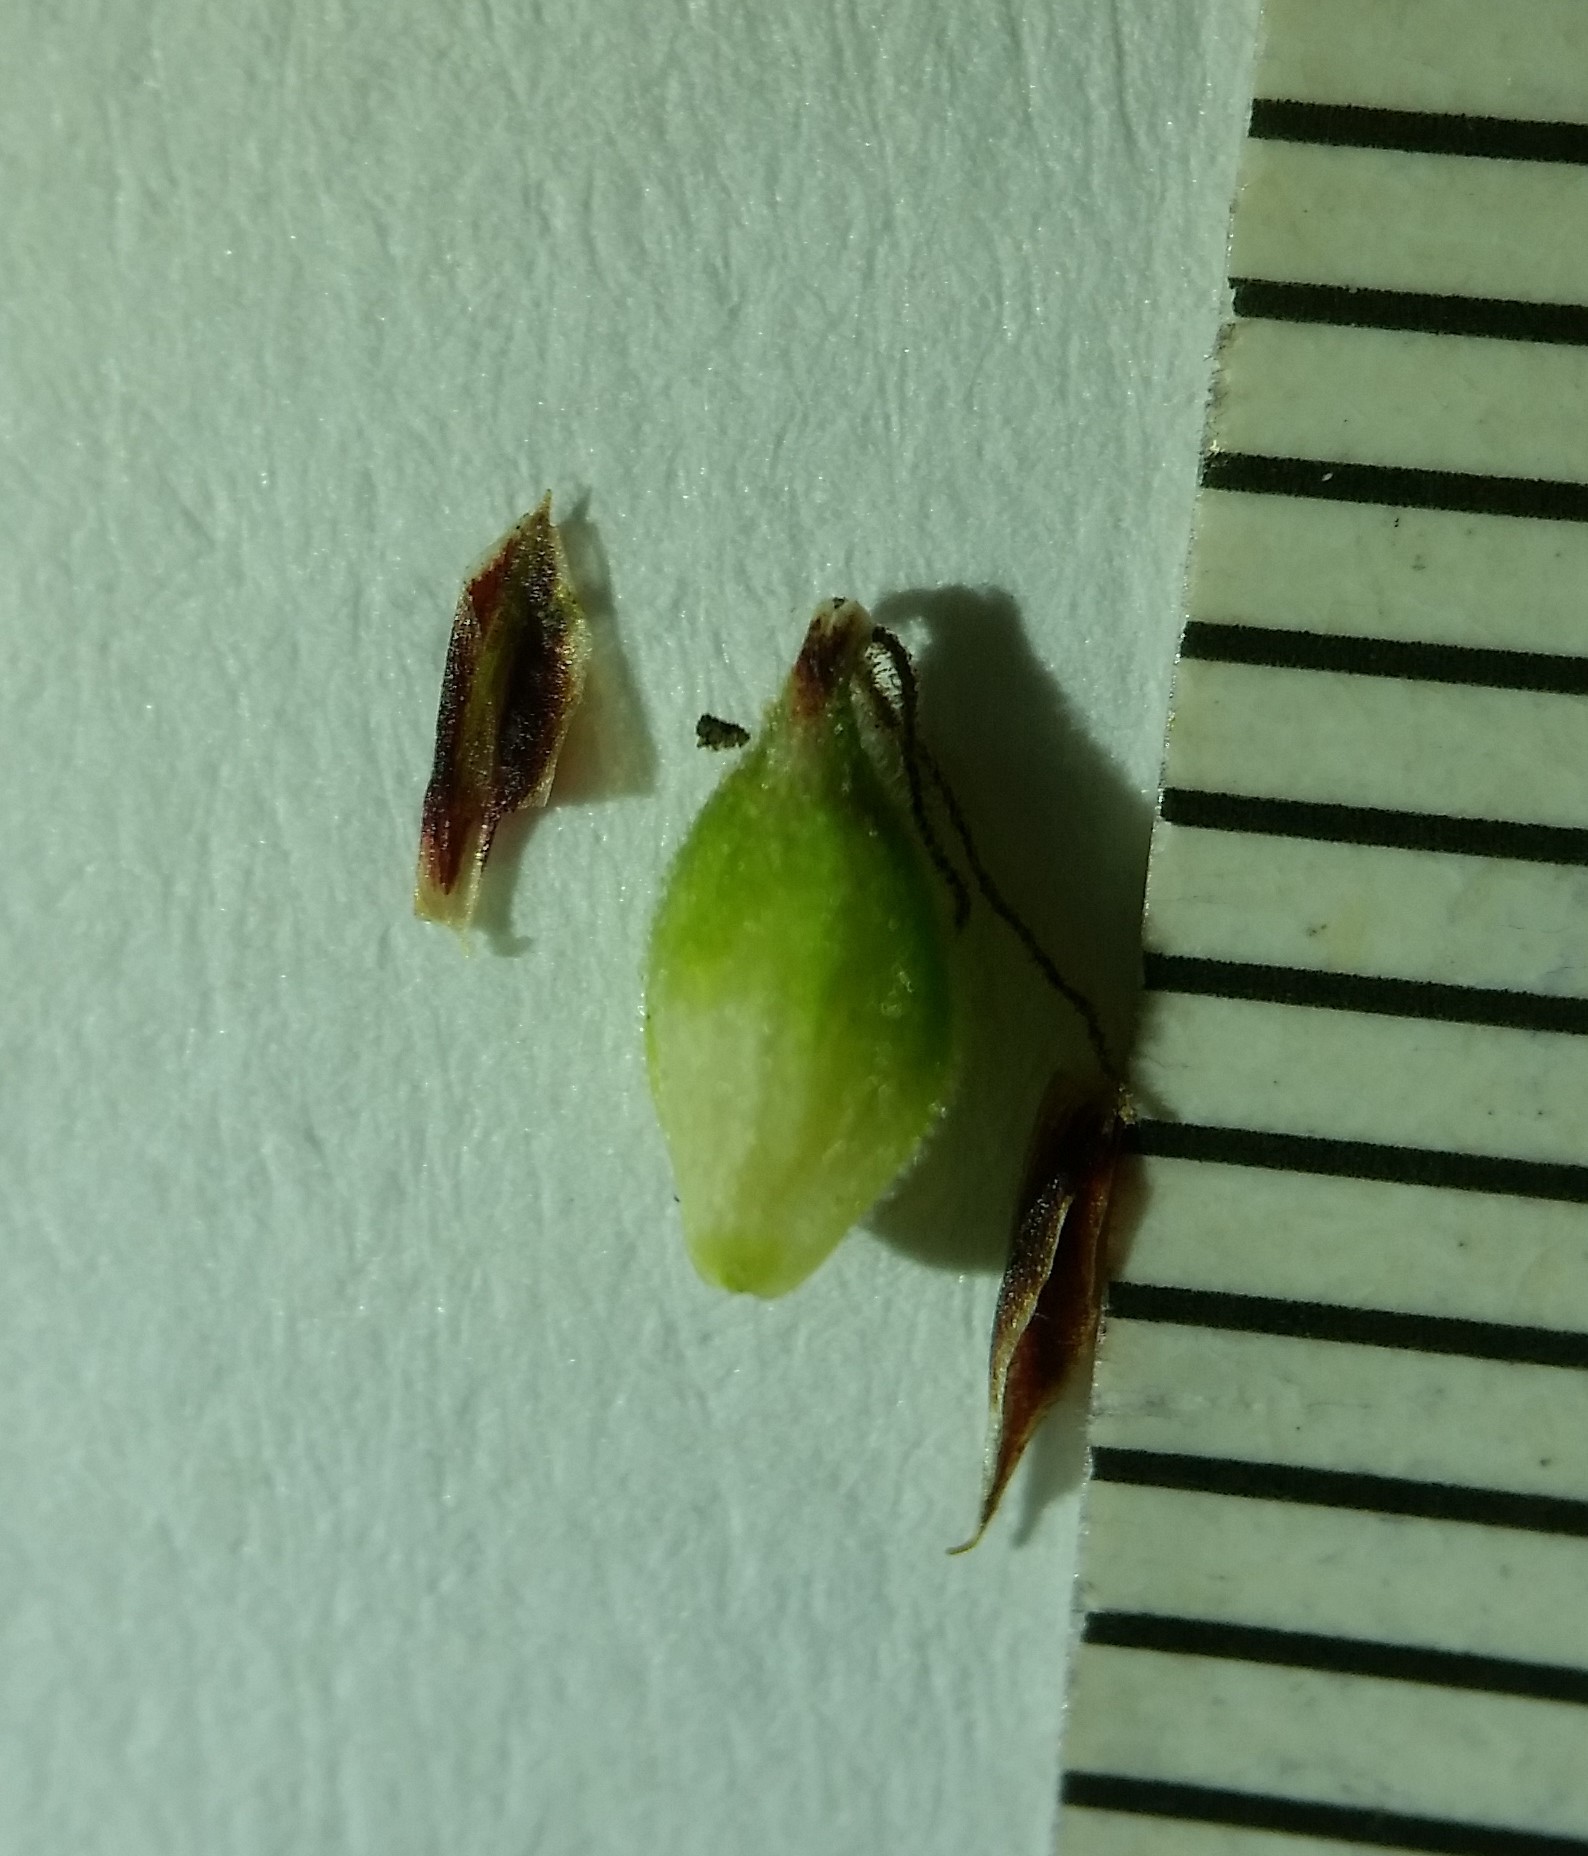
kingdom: Plantae
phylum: Tracheophyta
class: Liliopsida
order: Poales
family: Cyperaceae
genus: Carex
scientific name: Carex vestita
